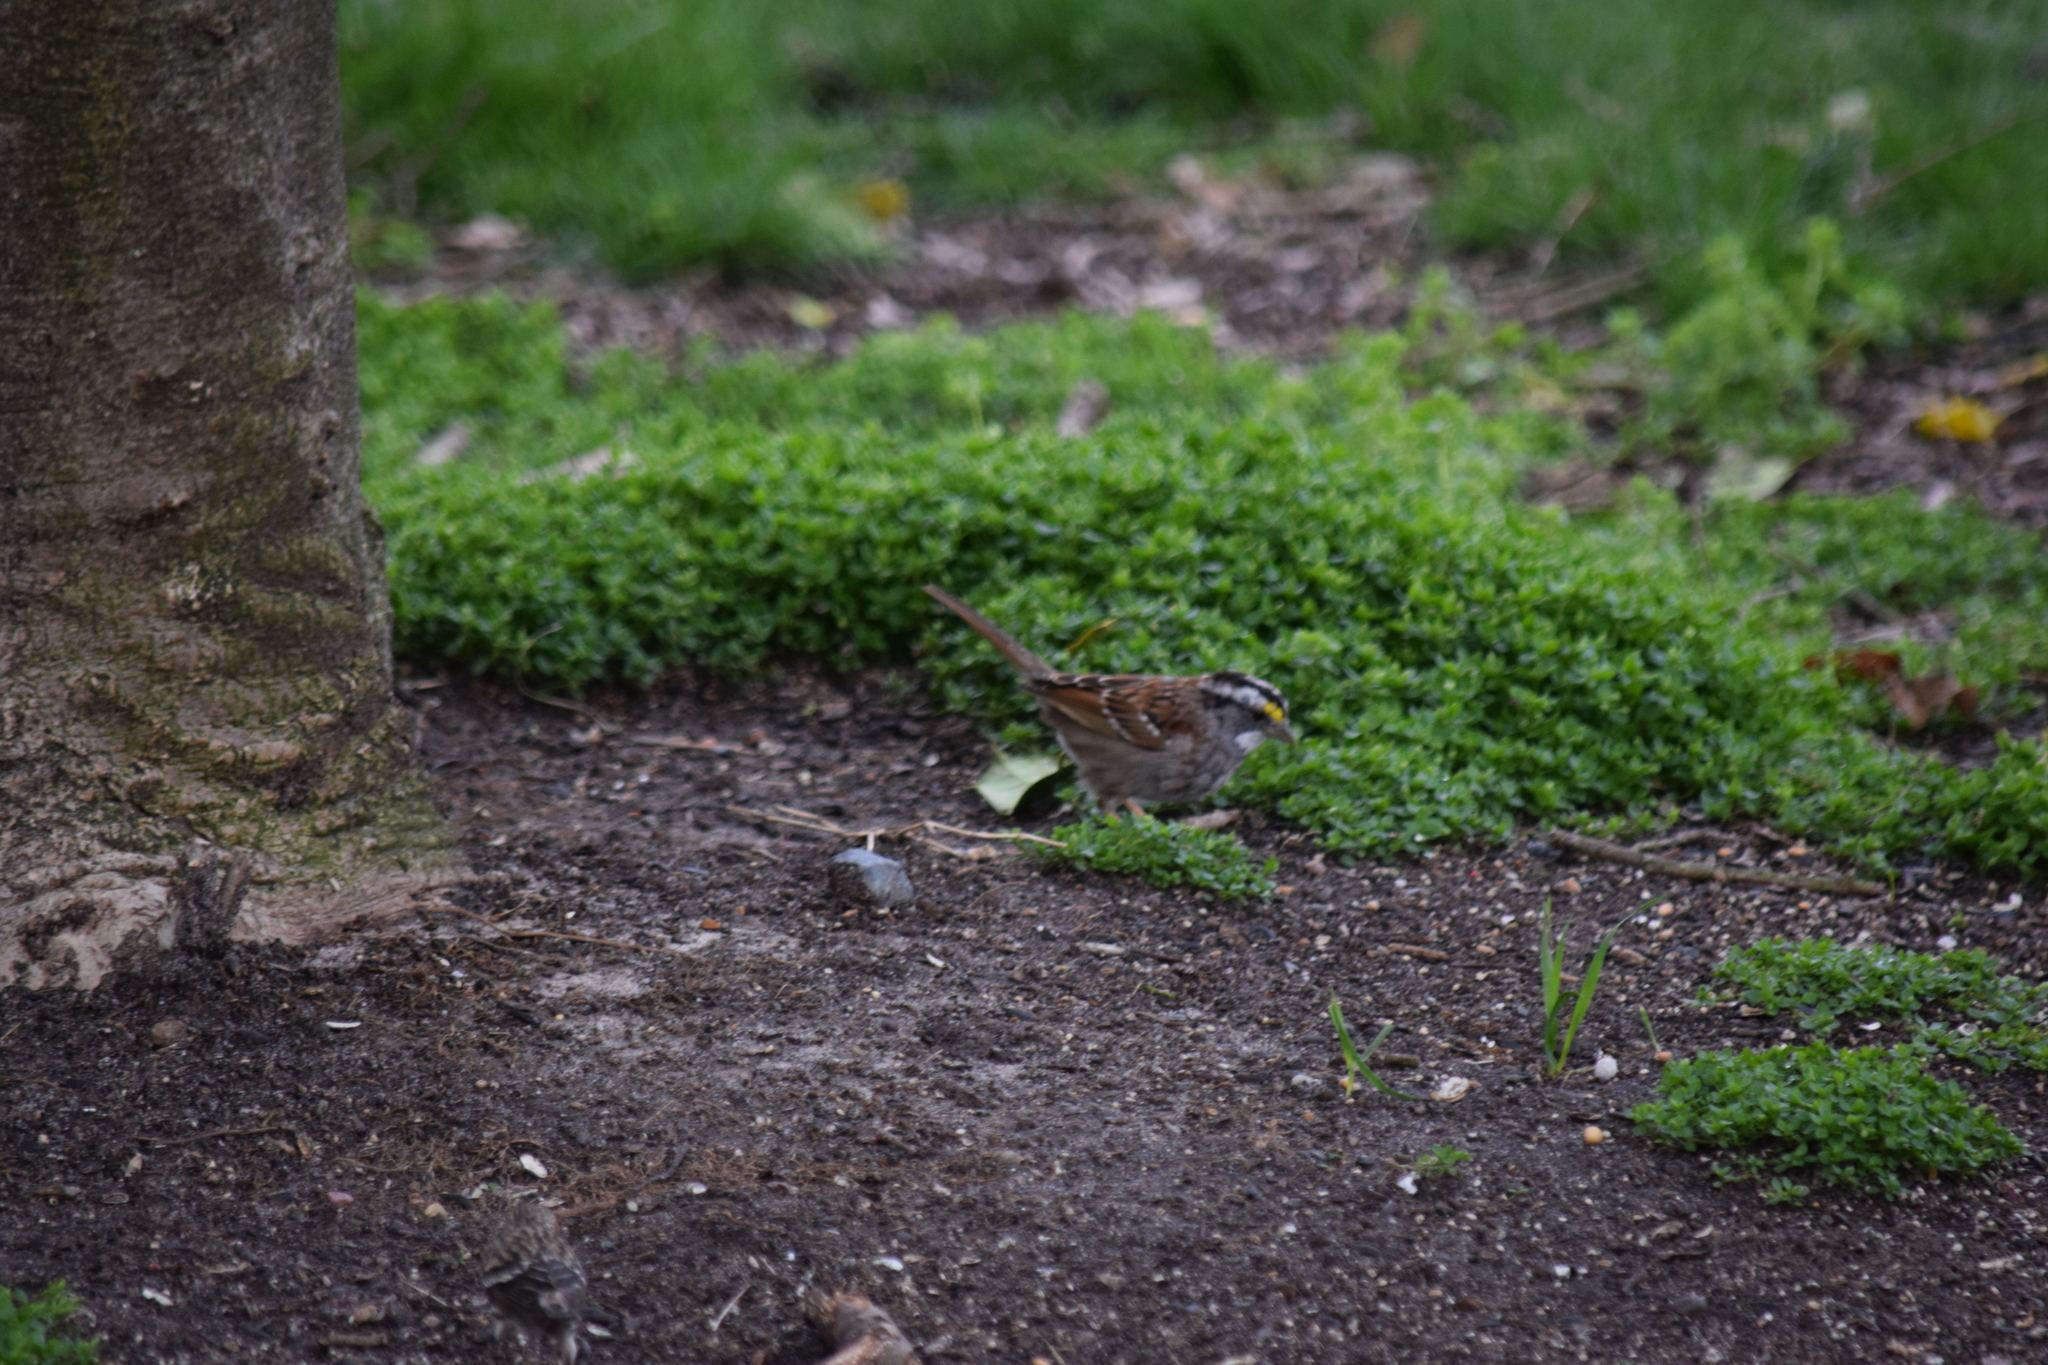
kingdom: Animalia
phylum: Chordata
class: Aves
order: Passeriformes
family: Passerellidae
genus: Zonotrichia
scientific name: Zonotrichia albicollis
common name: White-throated sparrow
